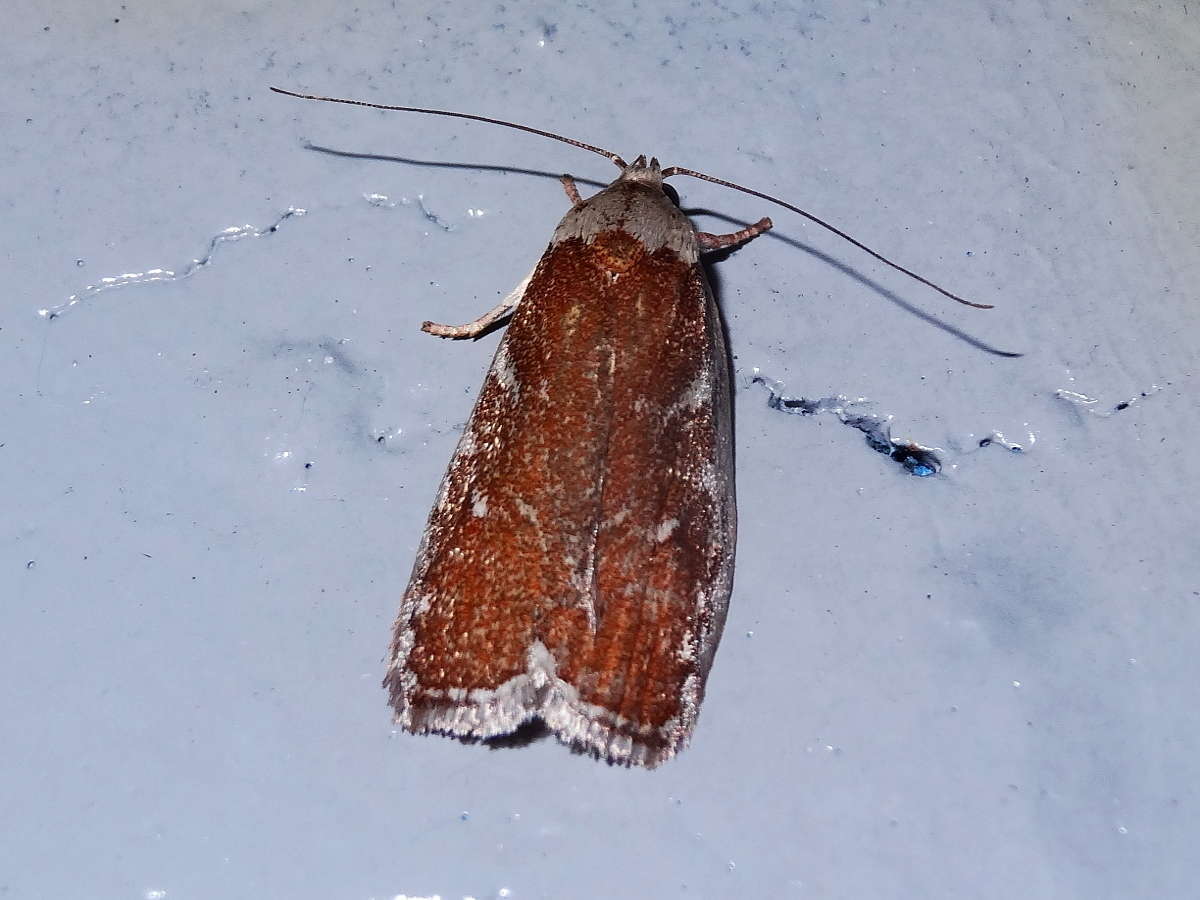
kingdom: Animalia
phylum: Arthropoda
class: Insecta
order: Lepidoptera
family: Oecophoridae
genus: Euchaetis
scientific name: Euchaetis rhizobola
